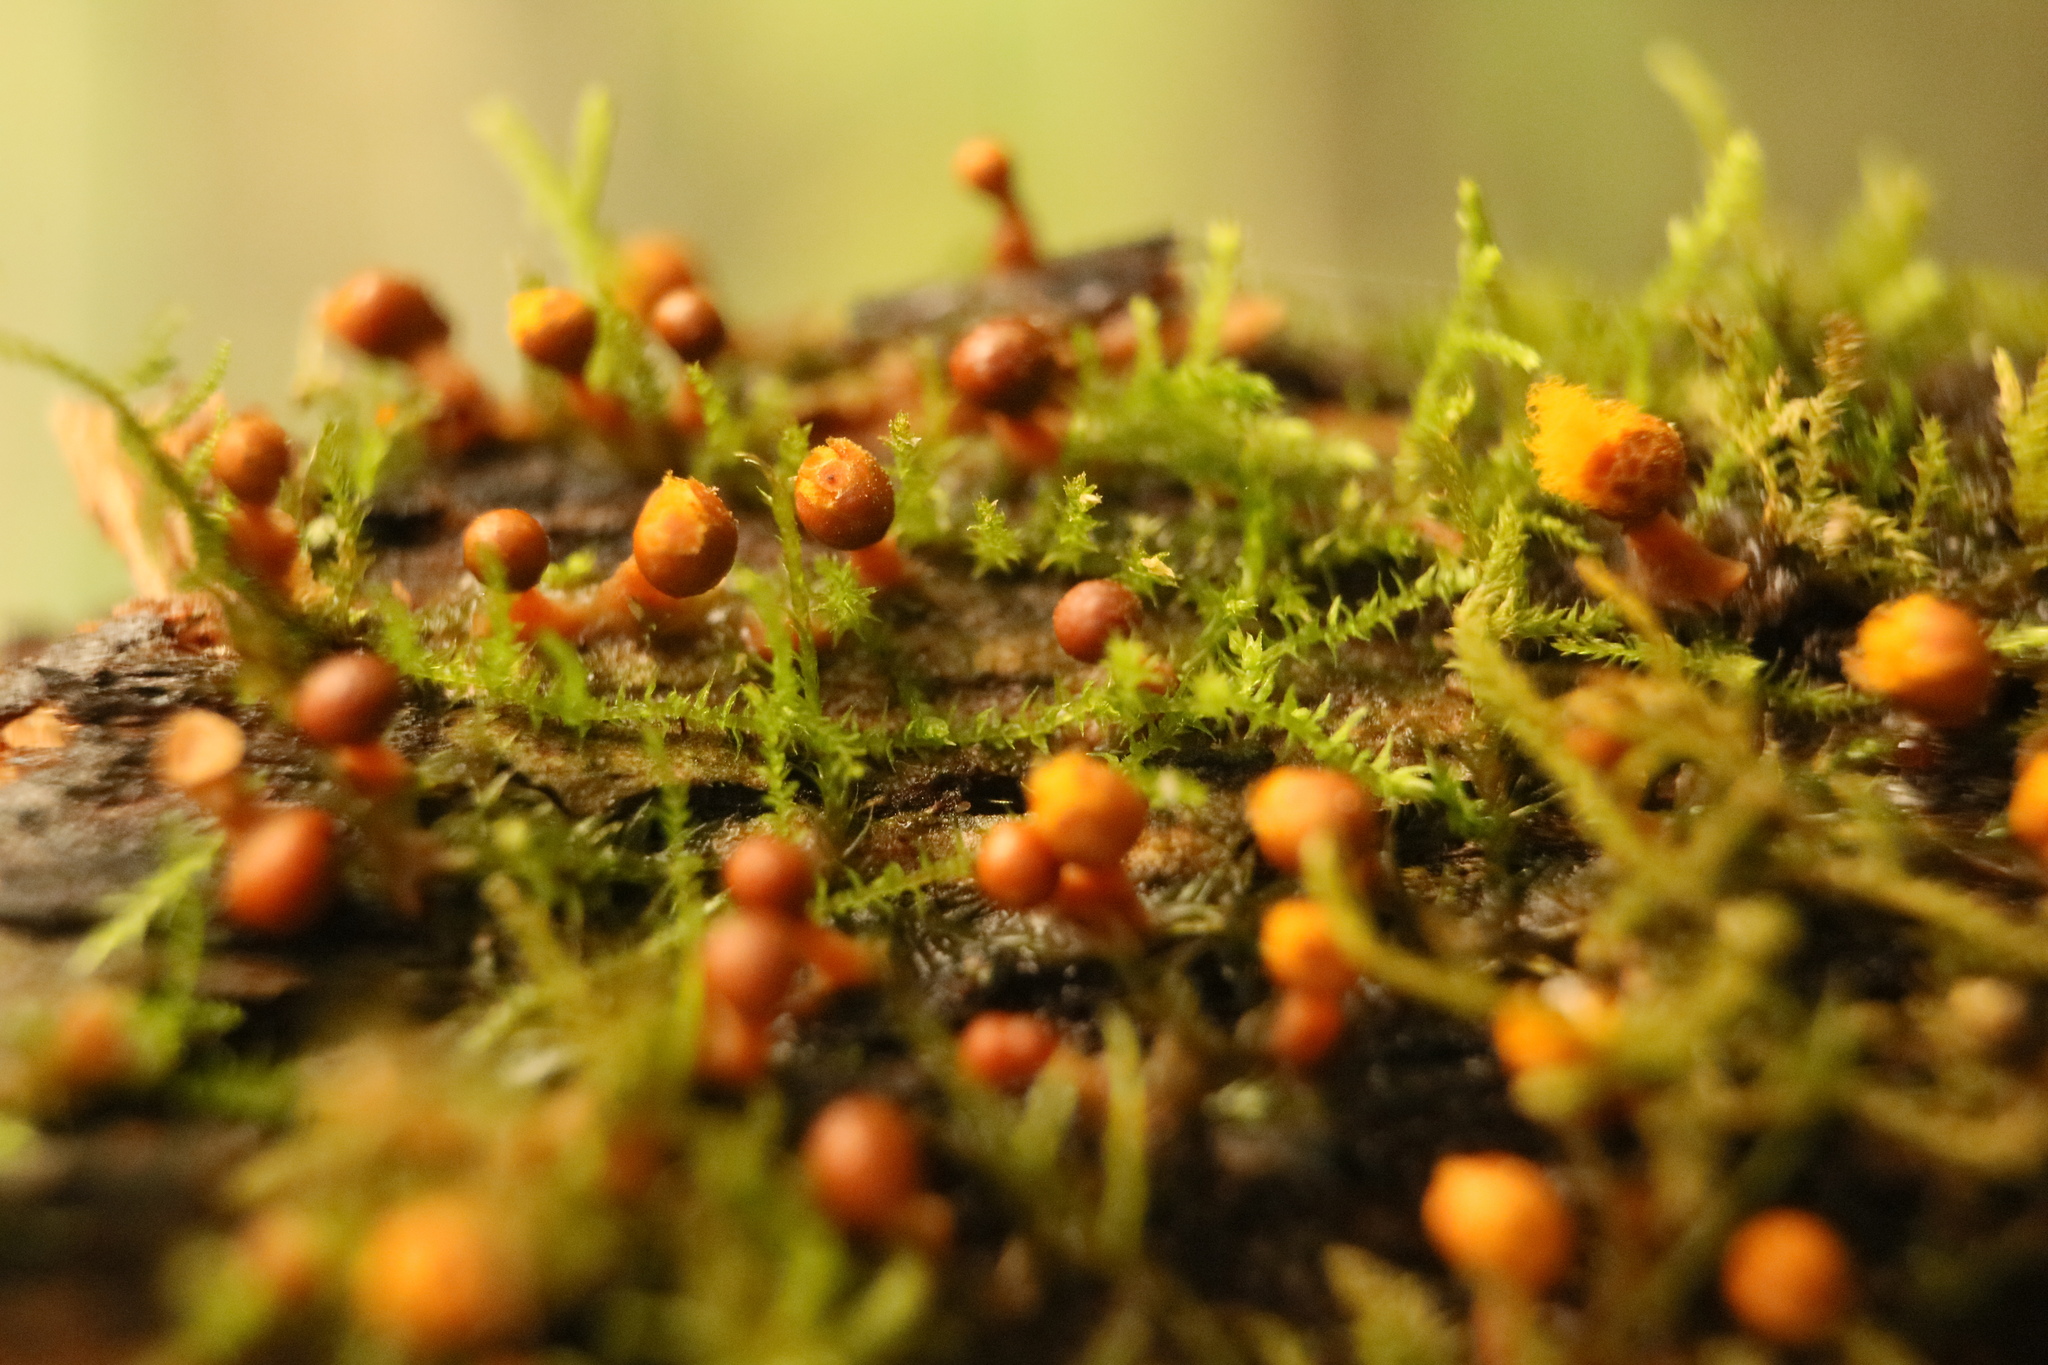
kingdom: Protozoa
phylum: Mycetozoa
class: Myxomycetes
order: Trichiales
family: Trichiaceae
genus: Trichia
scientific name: Trichia erecta
